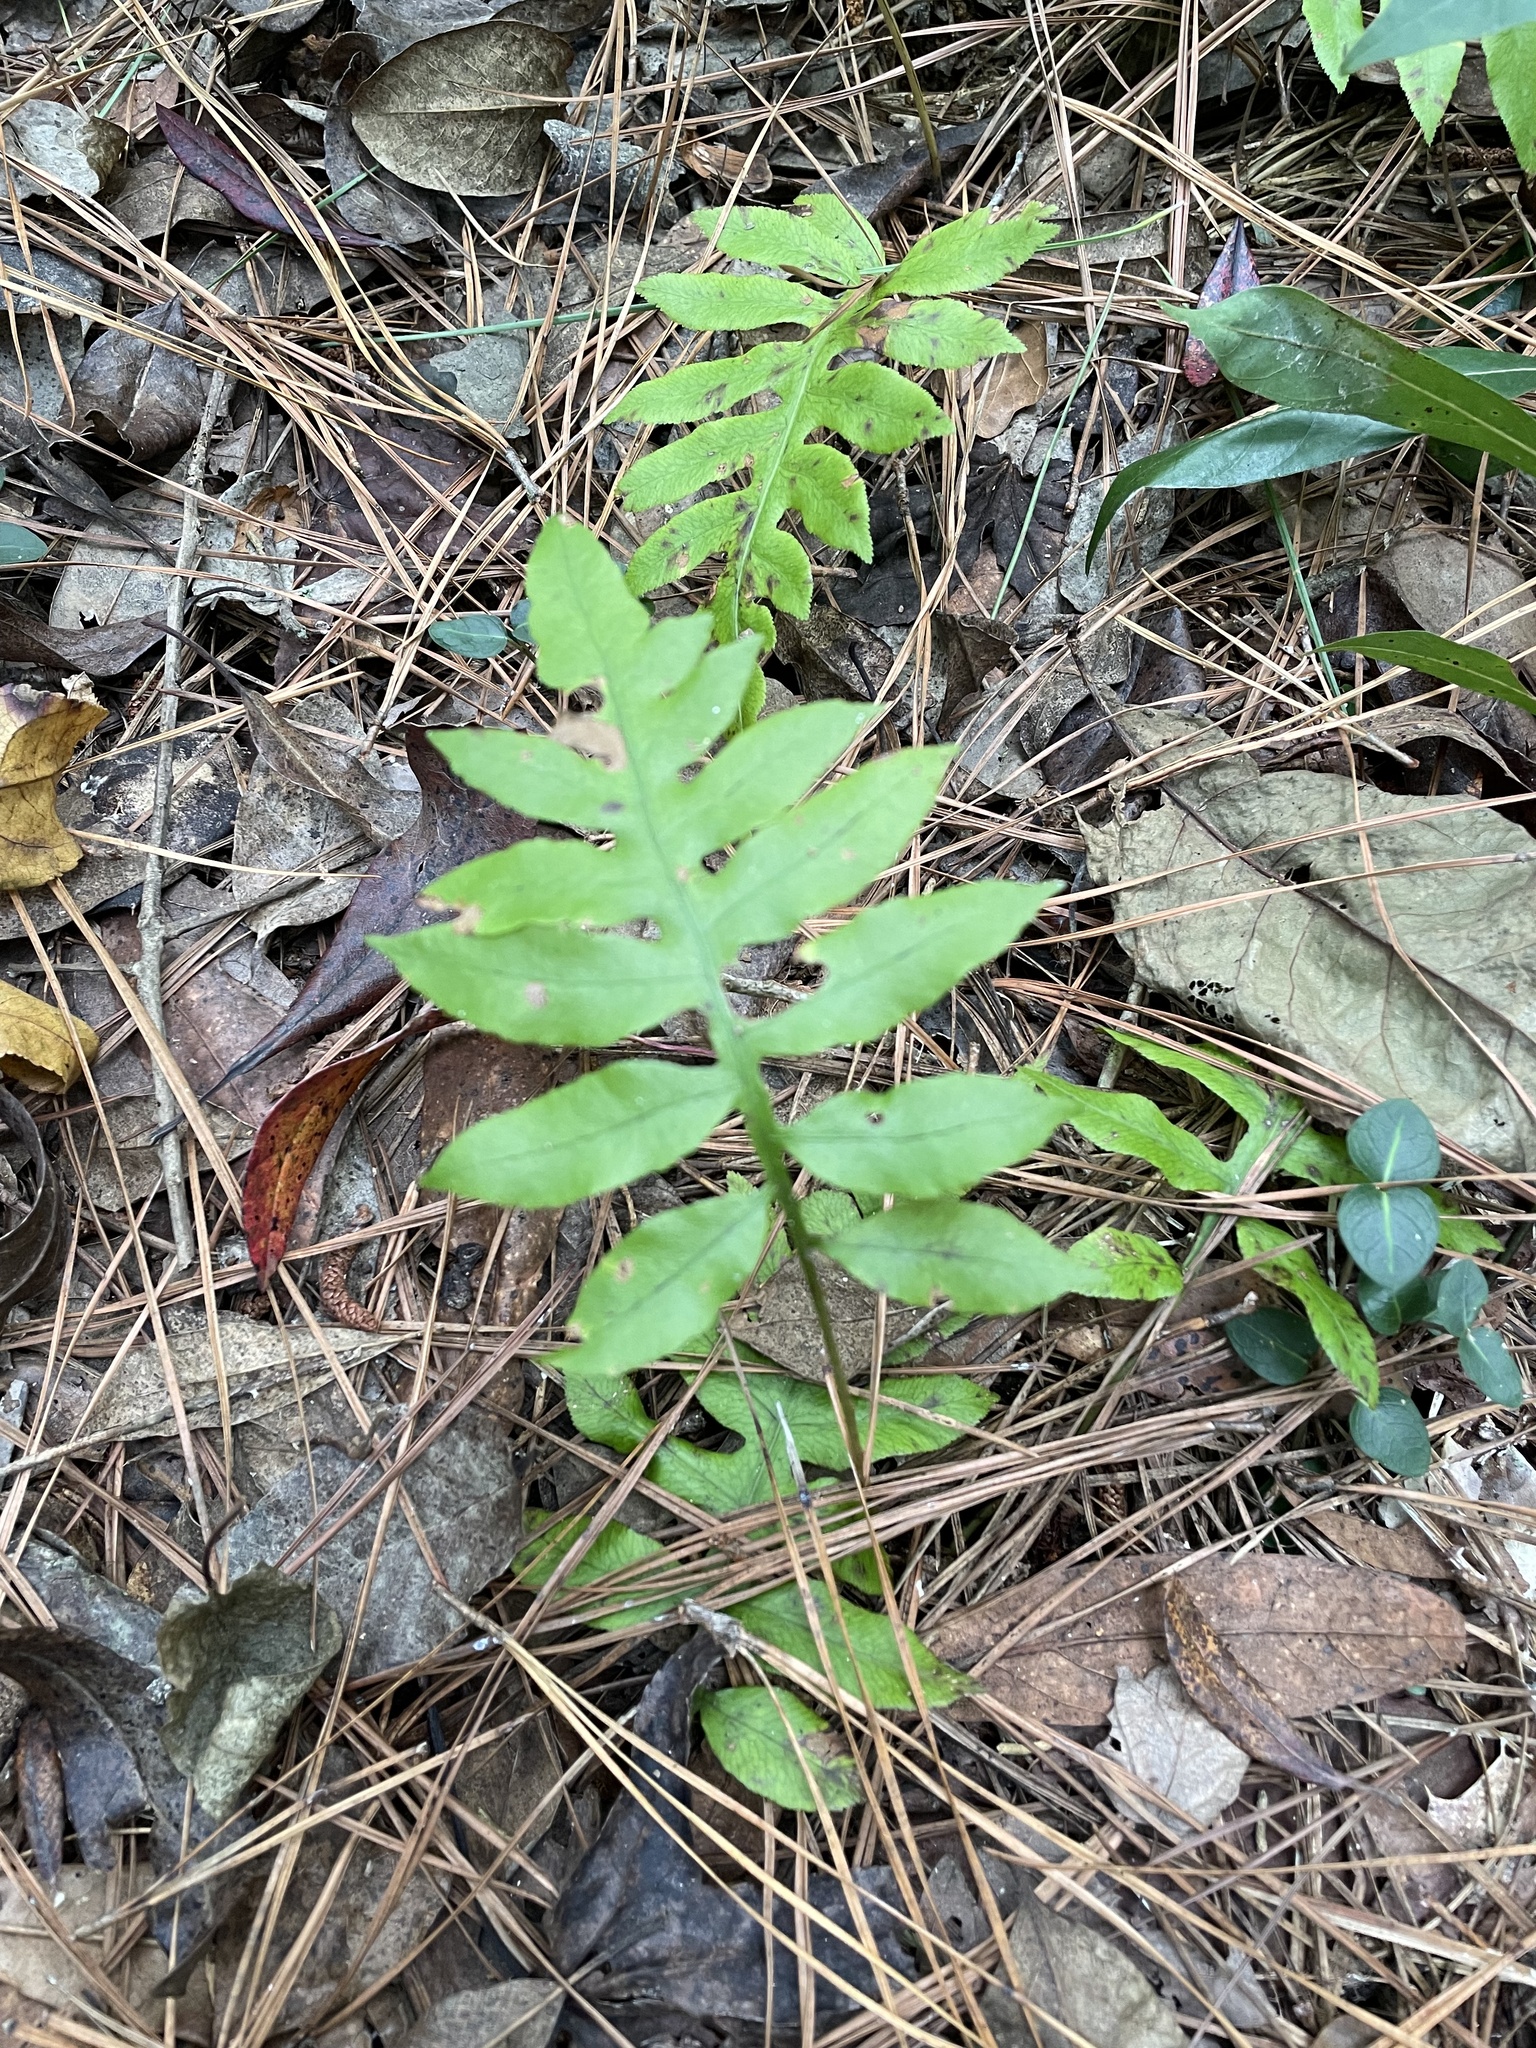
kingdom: Plantae
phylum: Tracheophyta
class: Polypodiopsida
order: Polypodiales
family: Blechnaceae
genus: Lorinseria
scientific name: Lorinseria areolata
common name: Dwarf chain fern
